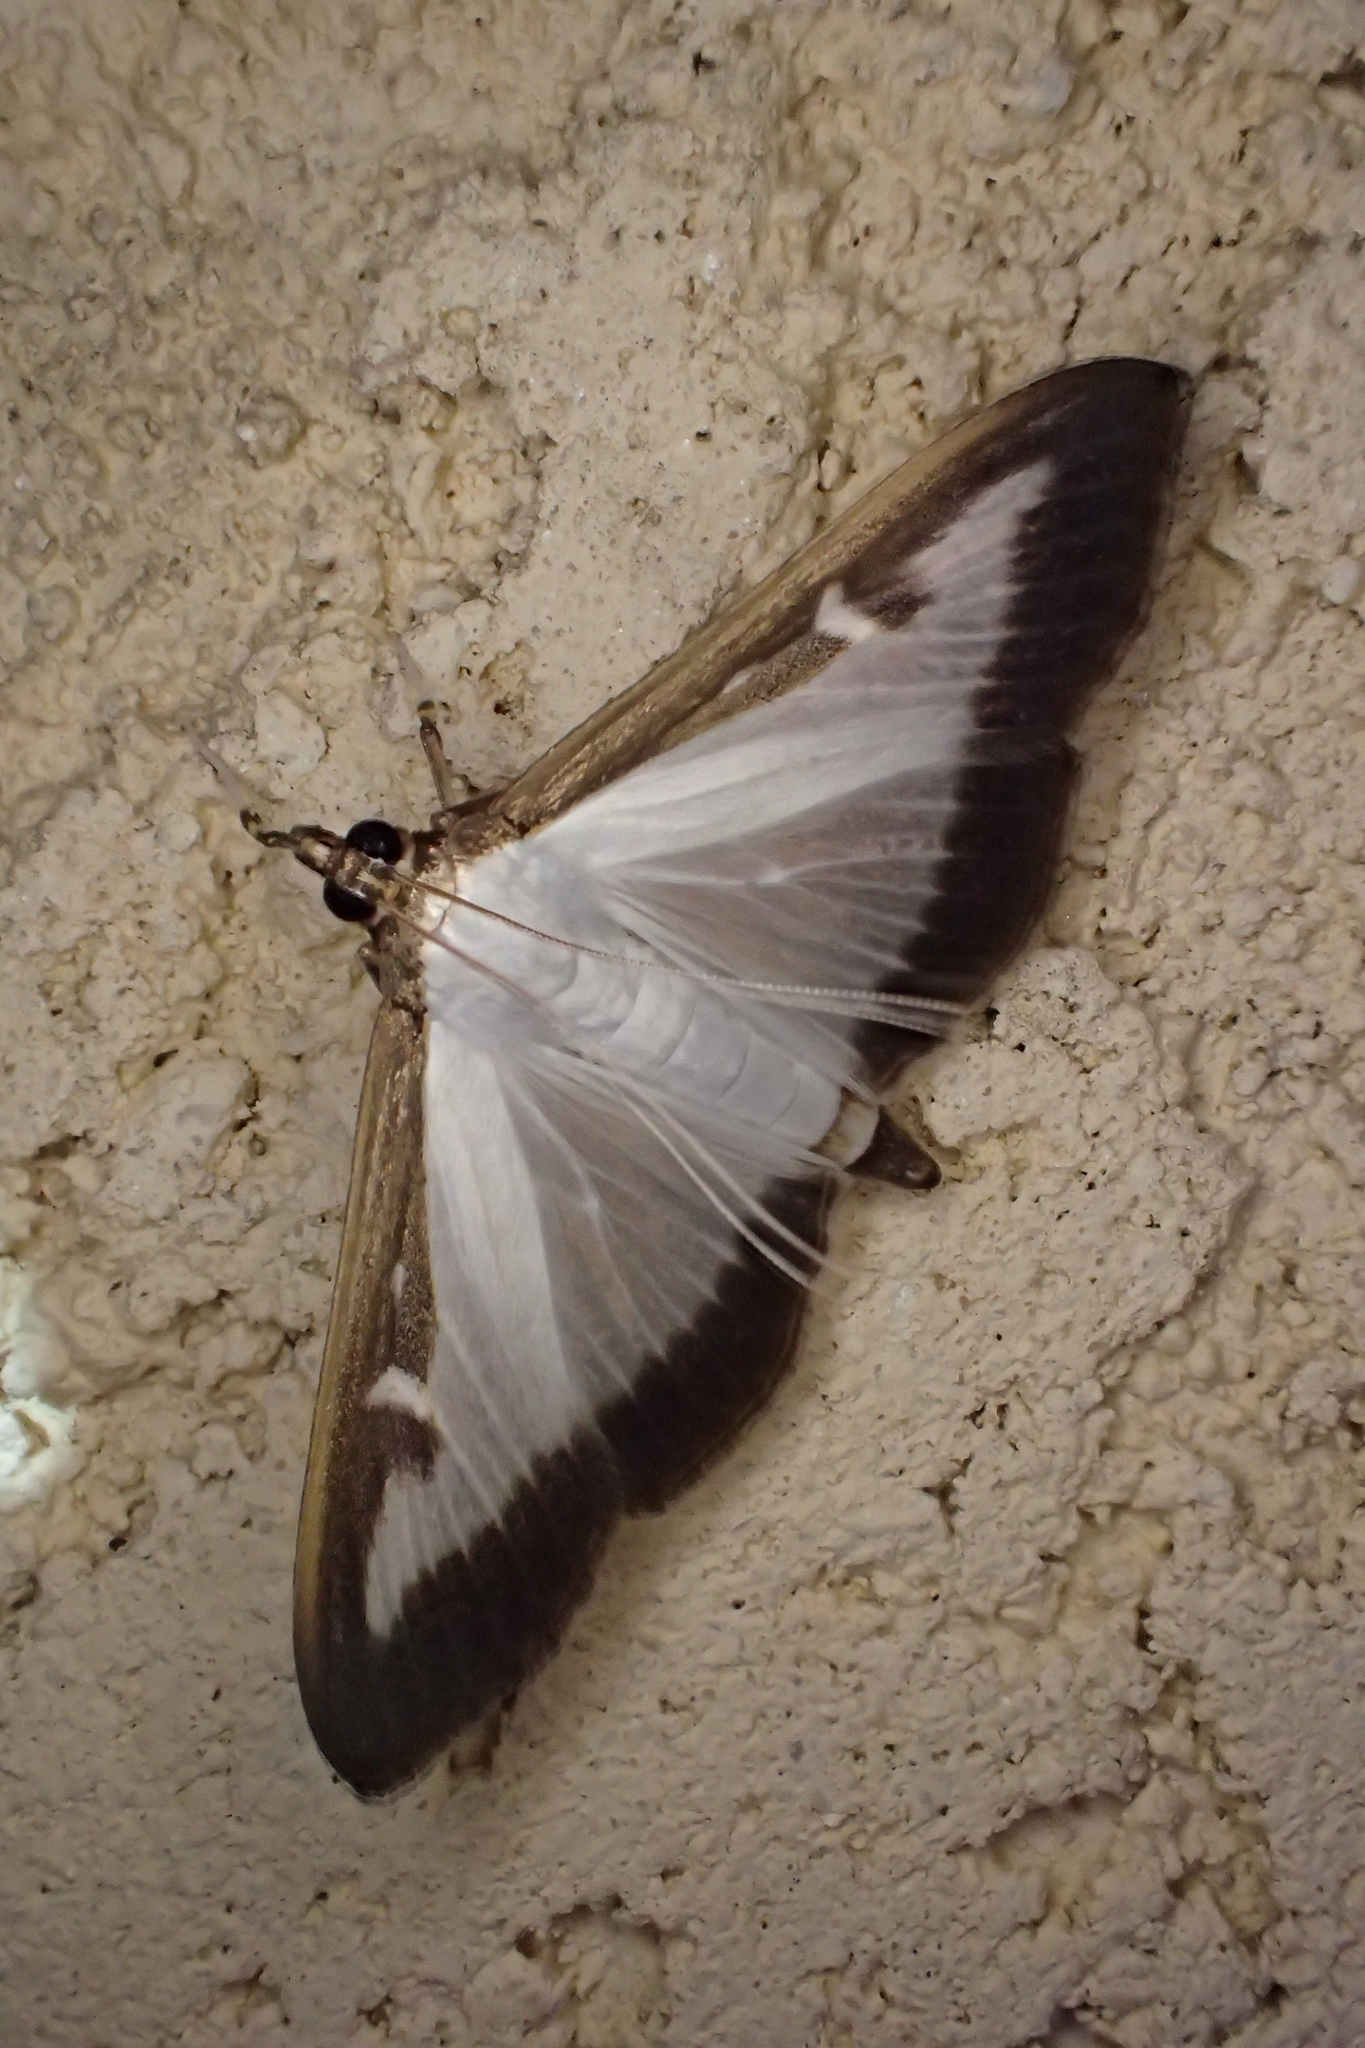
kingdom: Animalia
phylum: Arthropoda
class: Insecta
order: Lepidoptera
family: Crambidae
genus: Cydalima
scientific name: Cydalima perspectalis
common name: Box tree moth
